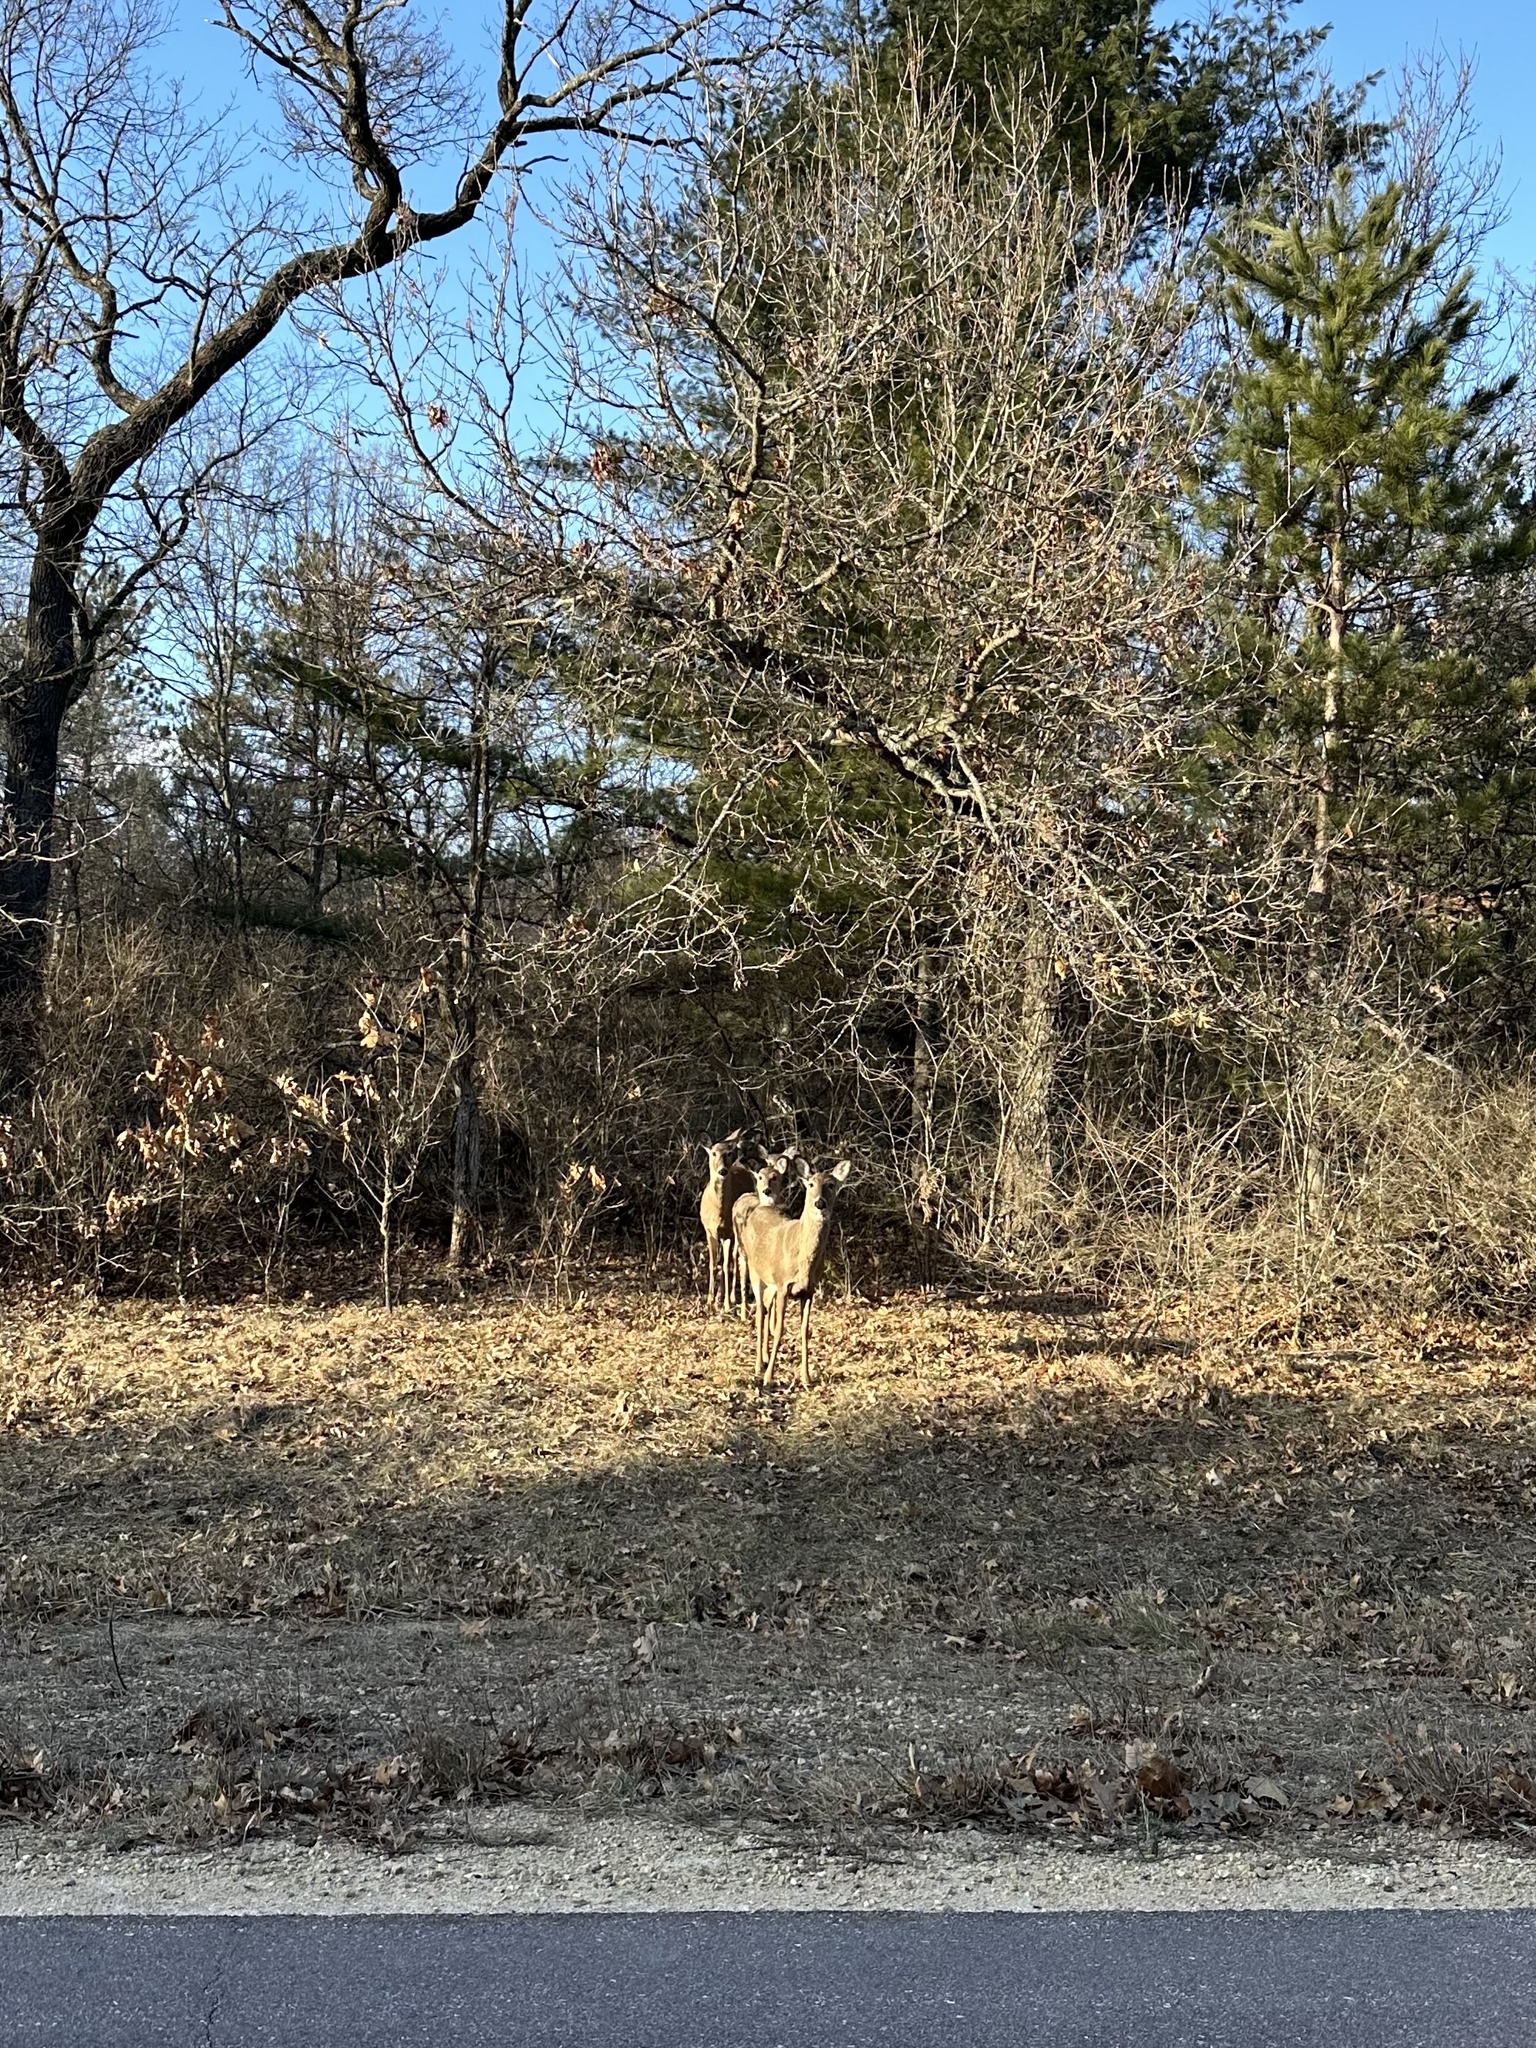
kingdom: Animalia
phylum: Chordata
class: Mammalia
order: Artiodactyla
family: Cervidae
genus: Odocoileus
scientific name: Odocoileus virginianus
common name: White-tailed deer
